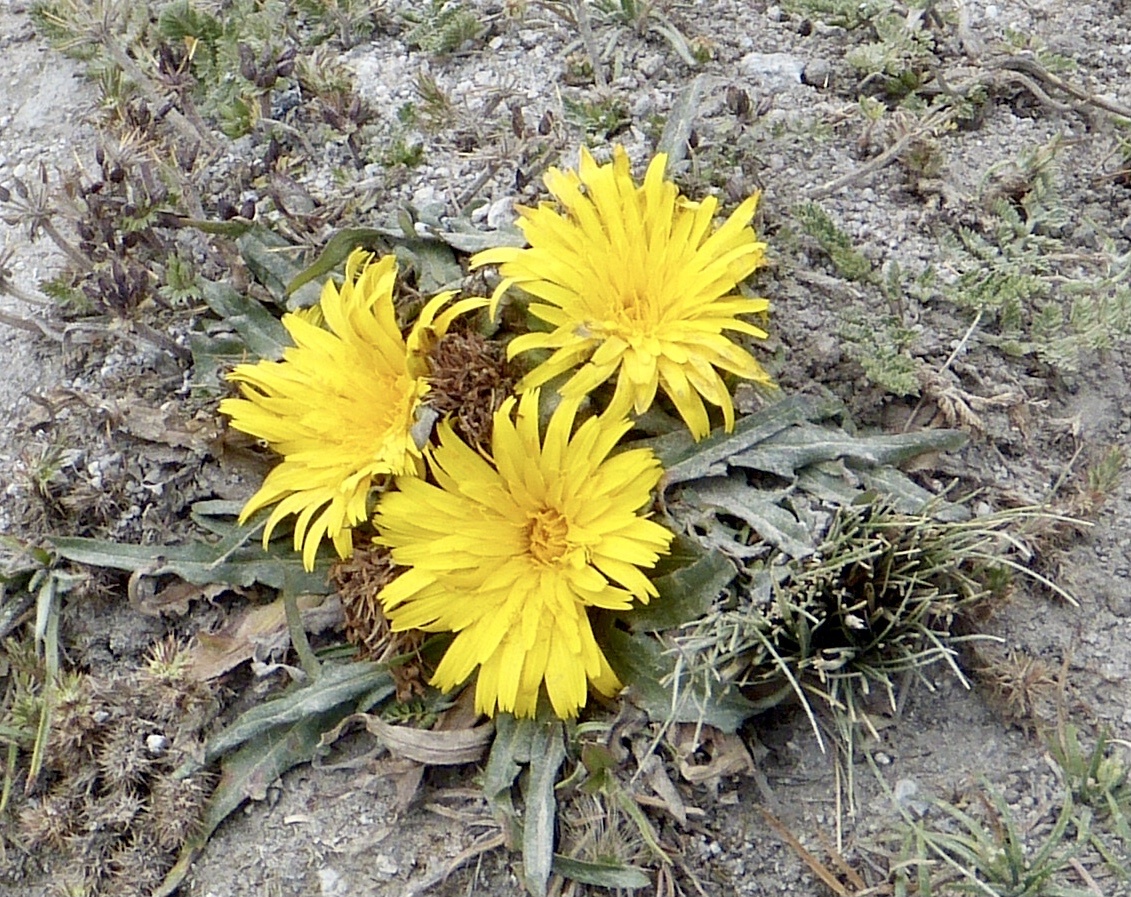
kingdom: Plantae
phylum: Tracheophyta
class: Magnoliopsida
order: Asterales
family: Asteraceae
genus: Hypochaeris
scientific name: Hypochaeris sessiliflora
